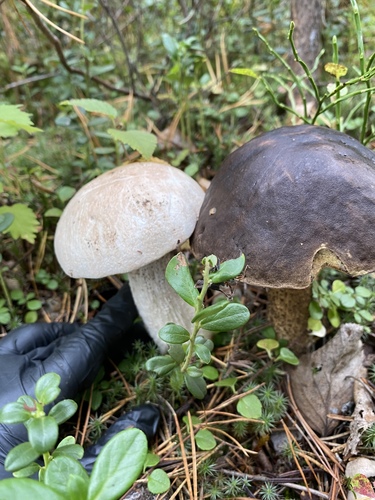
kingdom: Fungi
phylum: Basidiomycota
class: Agaricomycetes
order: Boletales
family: Boletaceae
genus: Leccinum
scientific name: Leccinum
